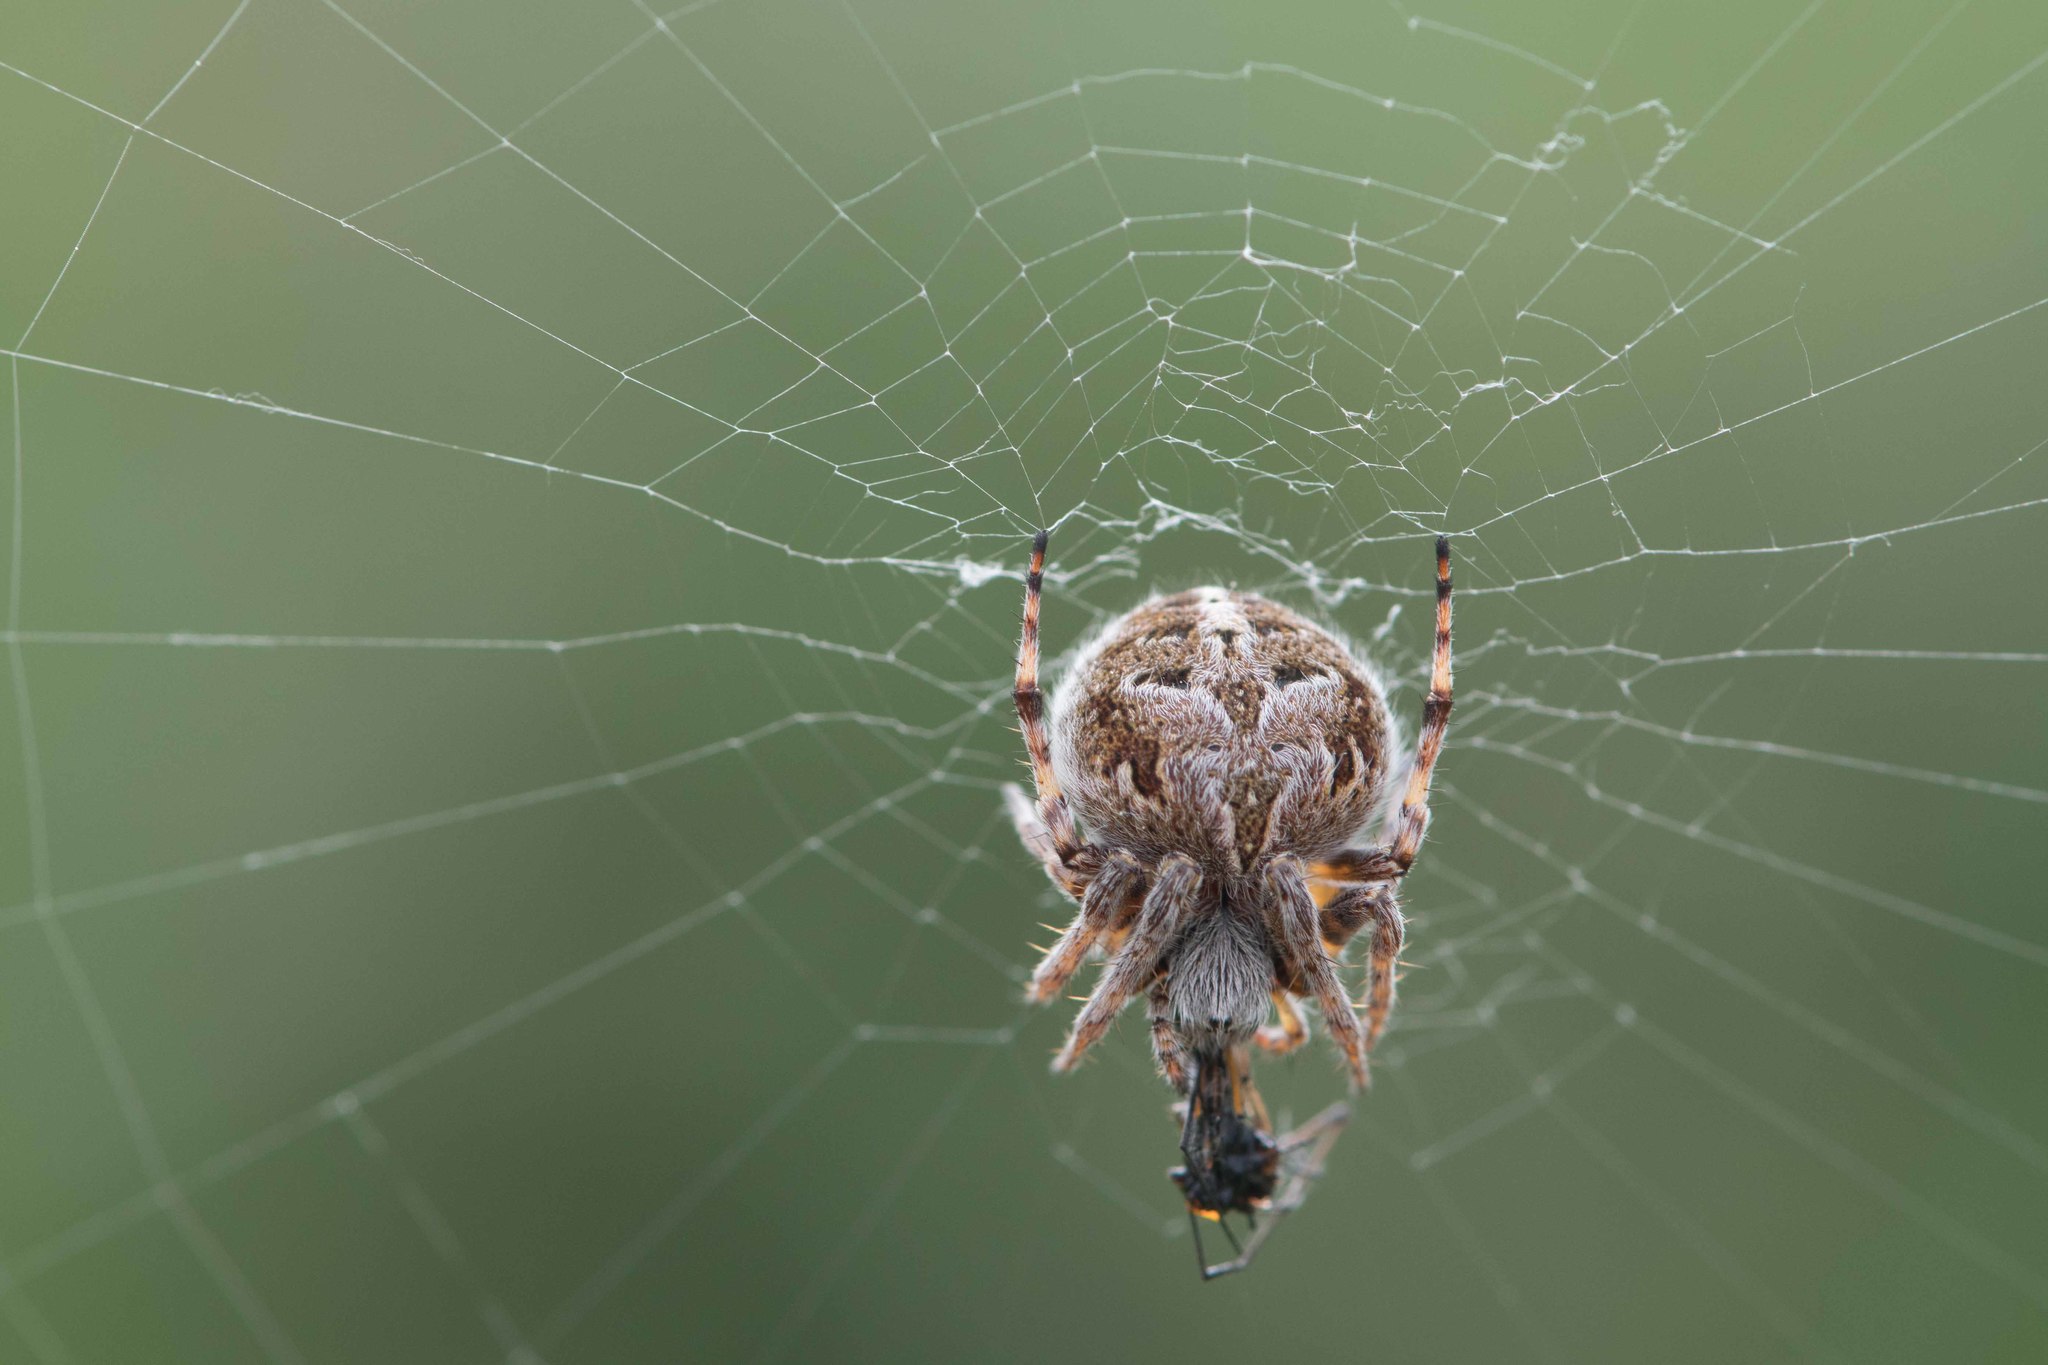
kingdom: Animalia
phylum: Arthropoda
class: Arachnida
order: Araneae
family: Araneidae
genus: Agalenatea
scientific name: Agalenatea redii
